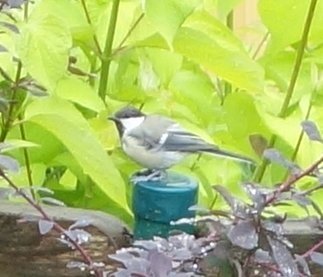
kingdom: Animalia
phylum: Chordata
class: Aves
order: Passeriformes
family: Paridae
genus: Parus
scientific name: Parus major
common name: Great tit
